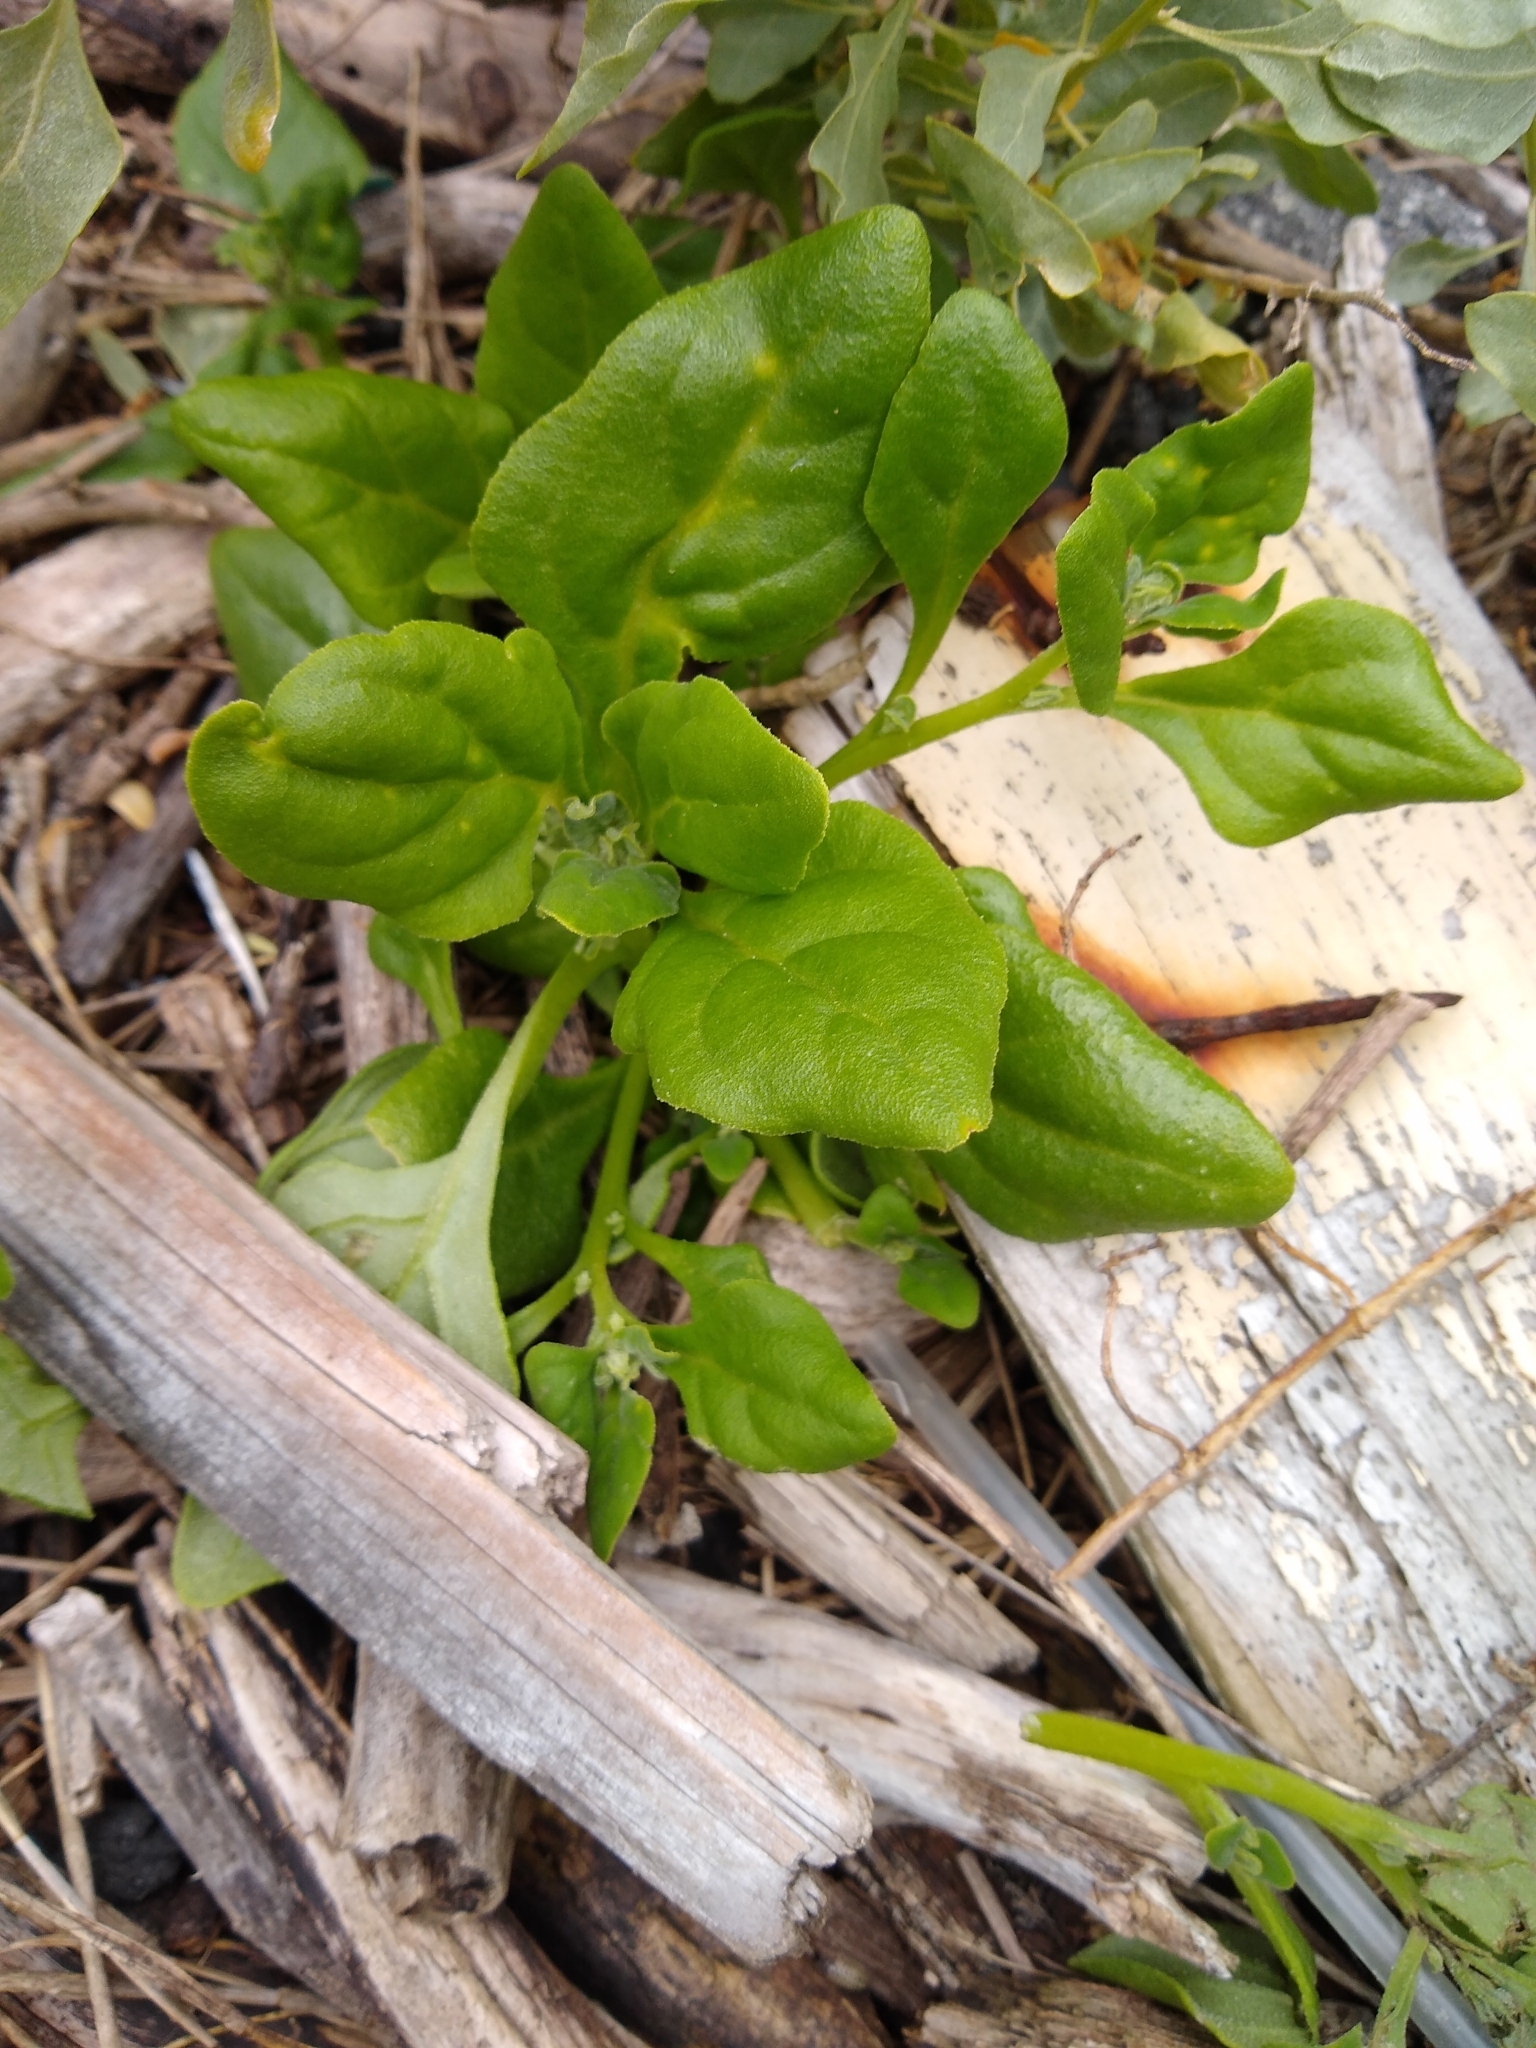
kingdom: Plantae
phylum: Tracheophyta
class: Magnoliopsida
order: Caryophyllales
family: Aizoaceae
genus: Tetragonia
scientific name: Tetragonia tetragonoides
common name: New zealand-spinach
